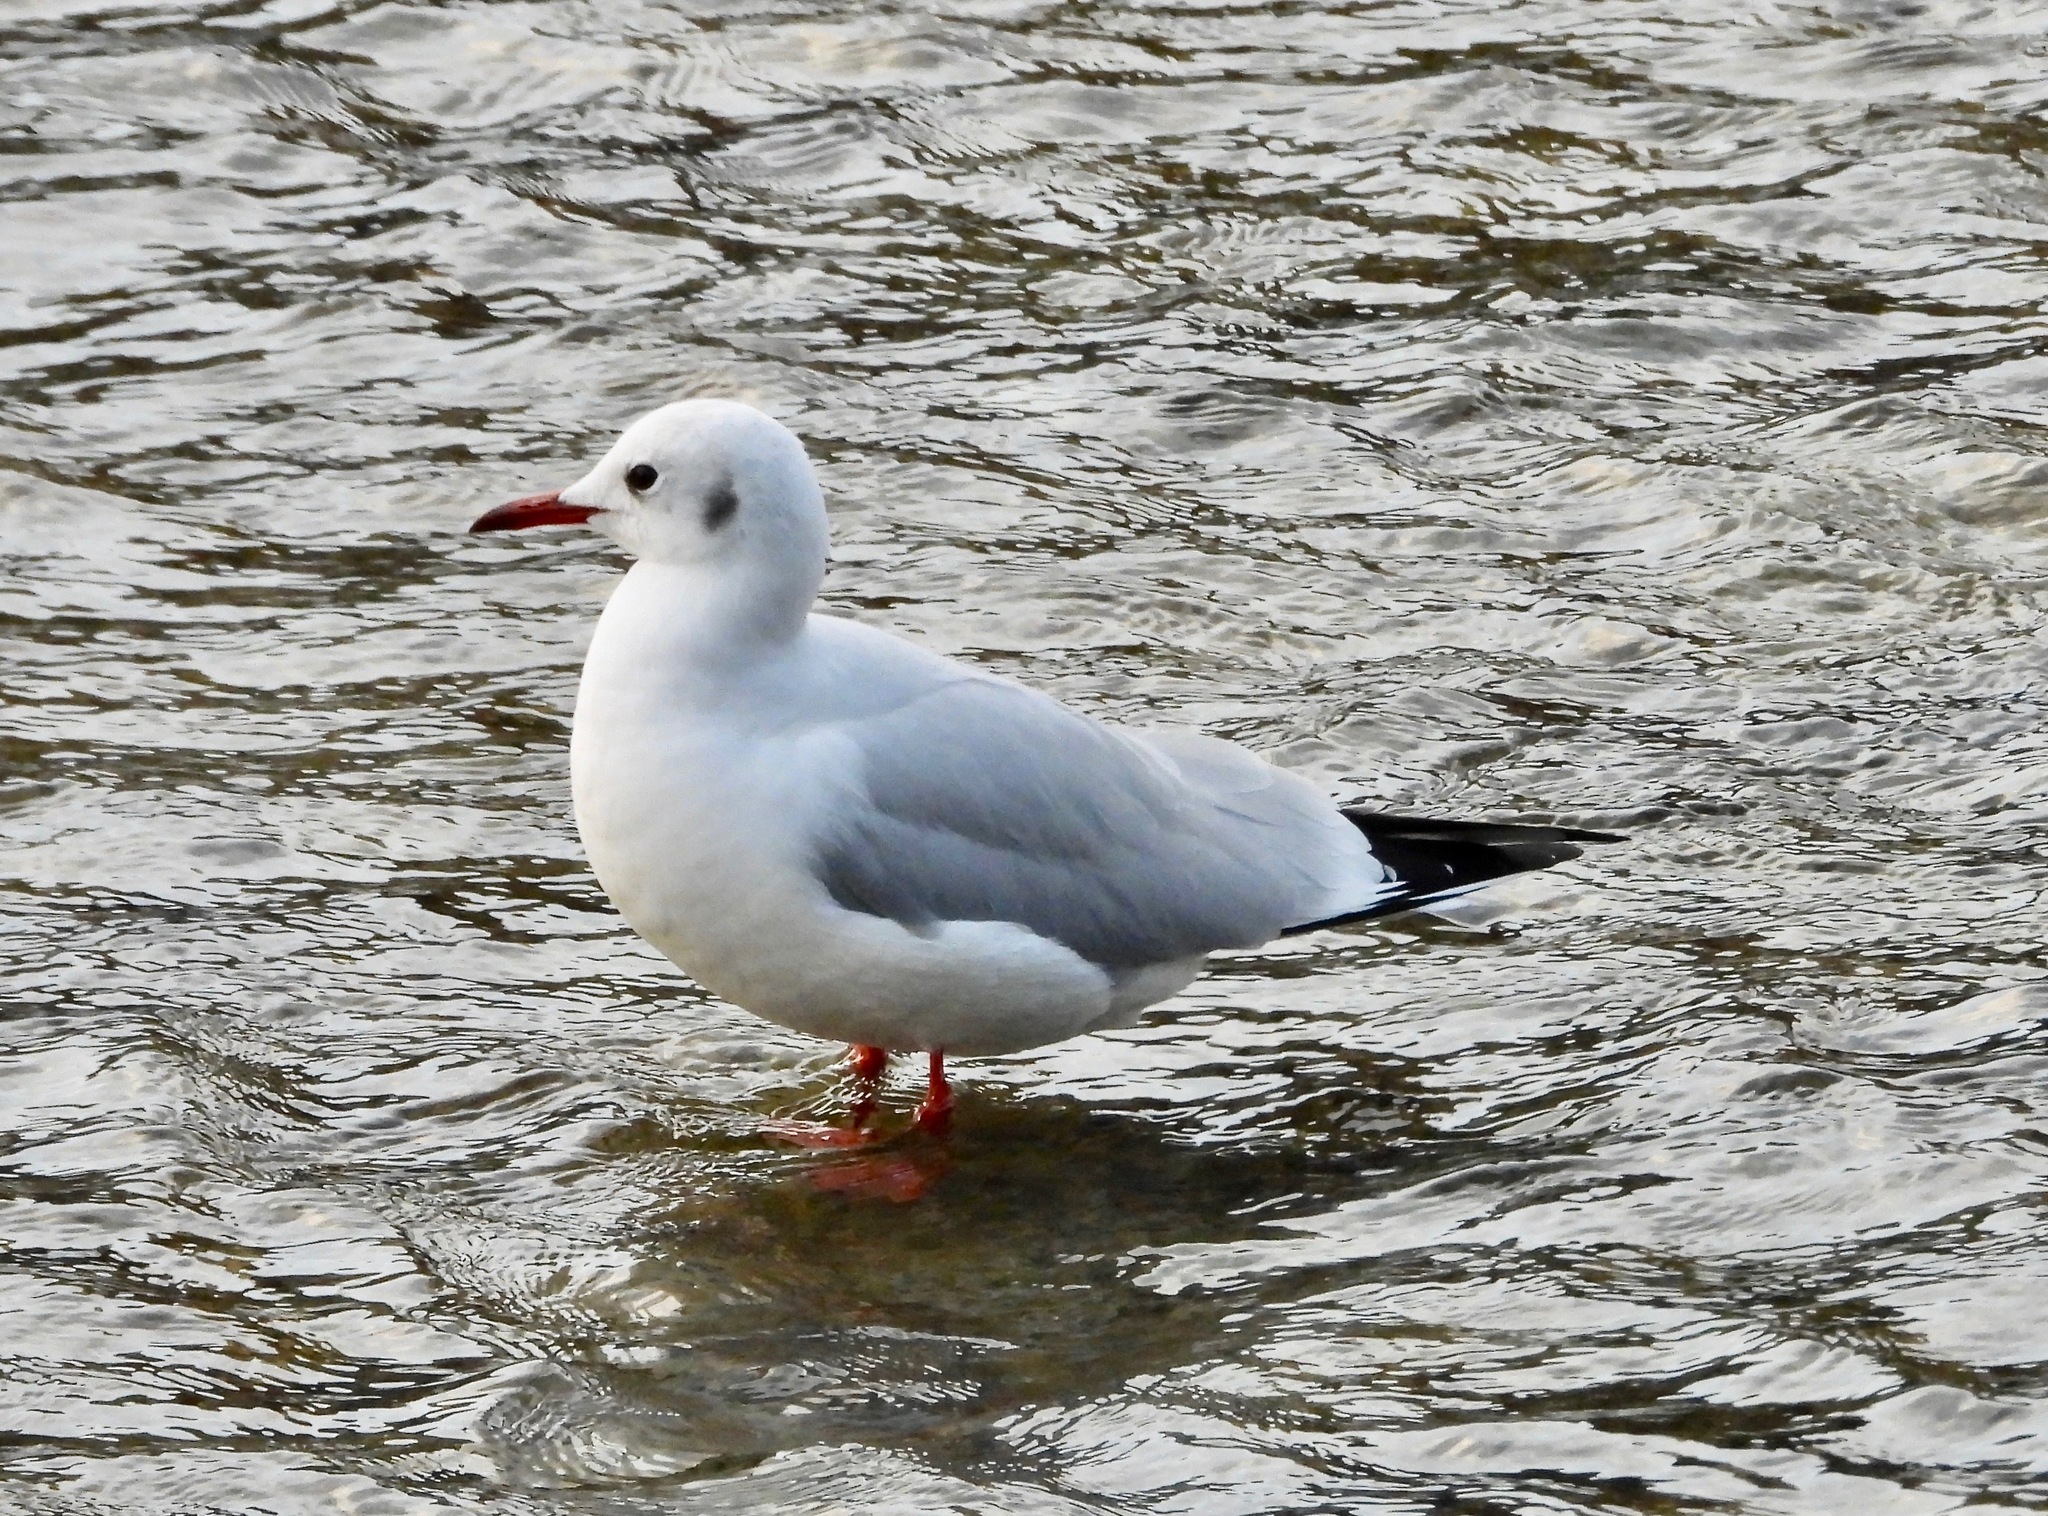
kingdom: Animalia
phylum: Chordata
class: Aves
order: Charadriiformes
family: Laridae
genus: Chroicocephalus
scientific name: Chroicocephalus ridibundus
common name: Black-headed gull
